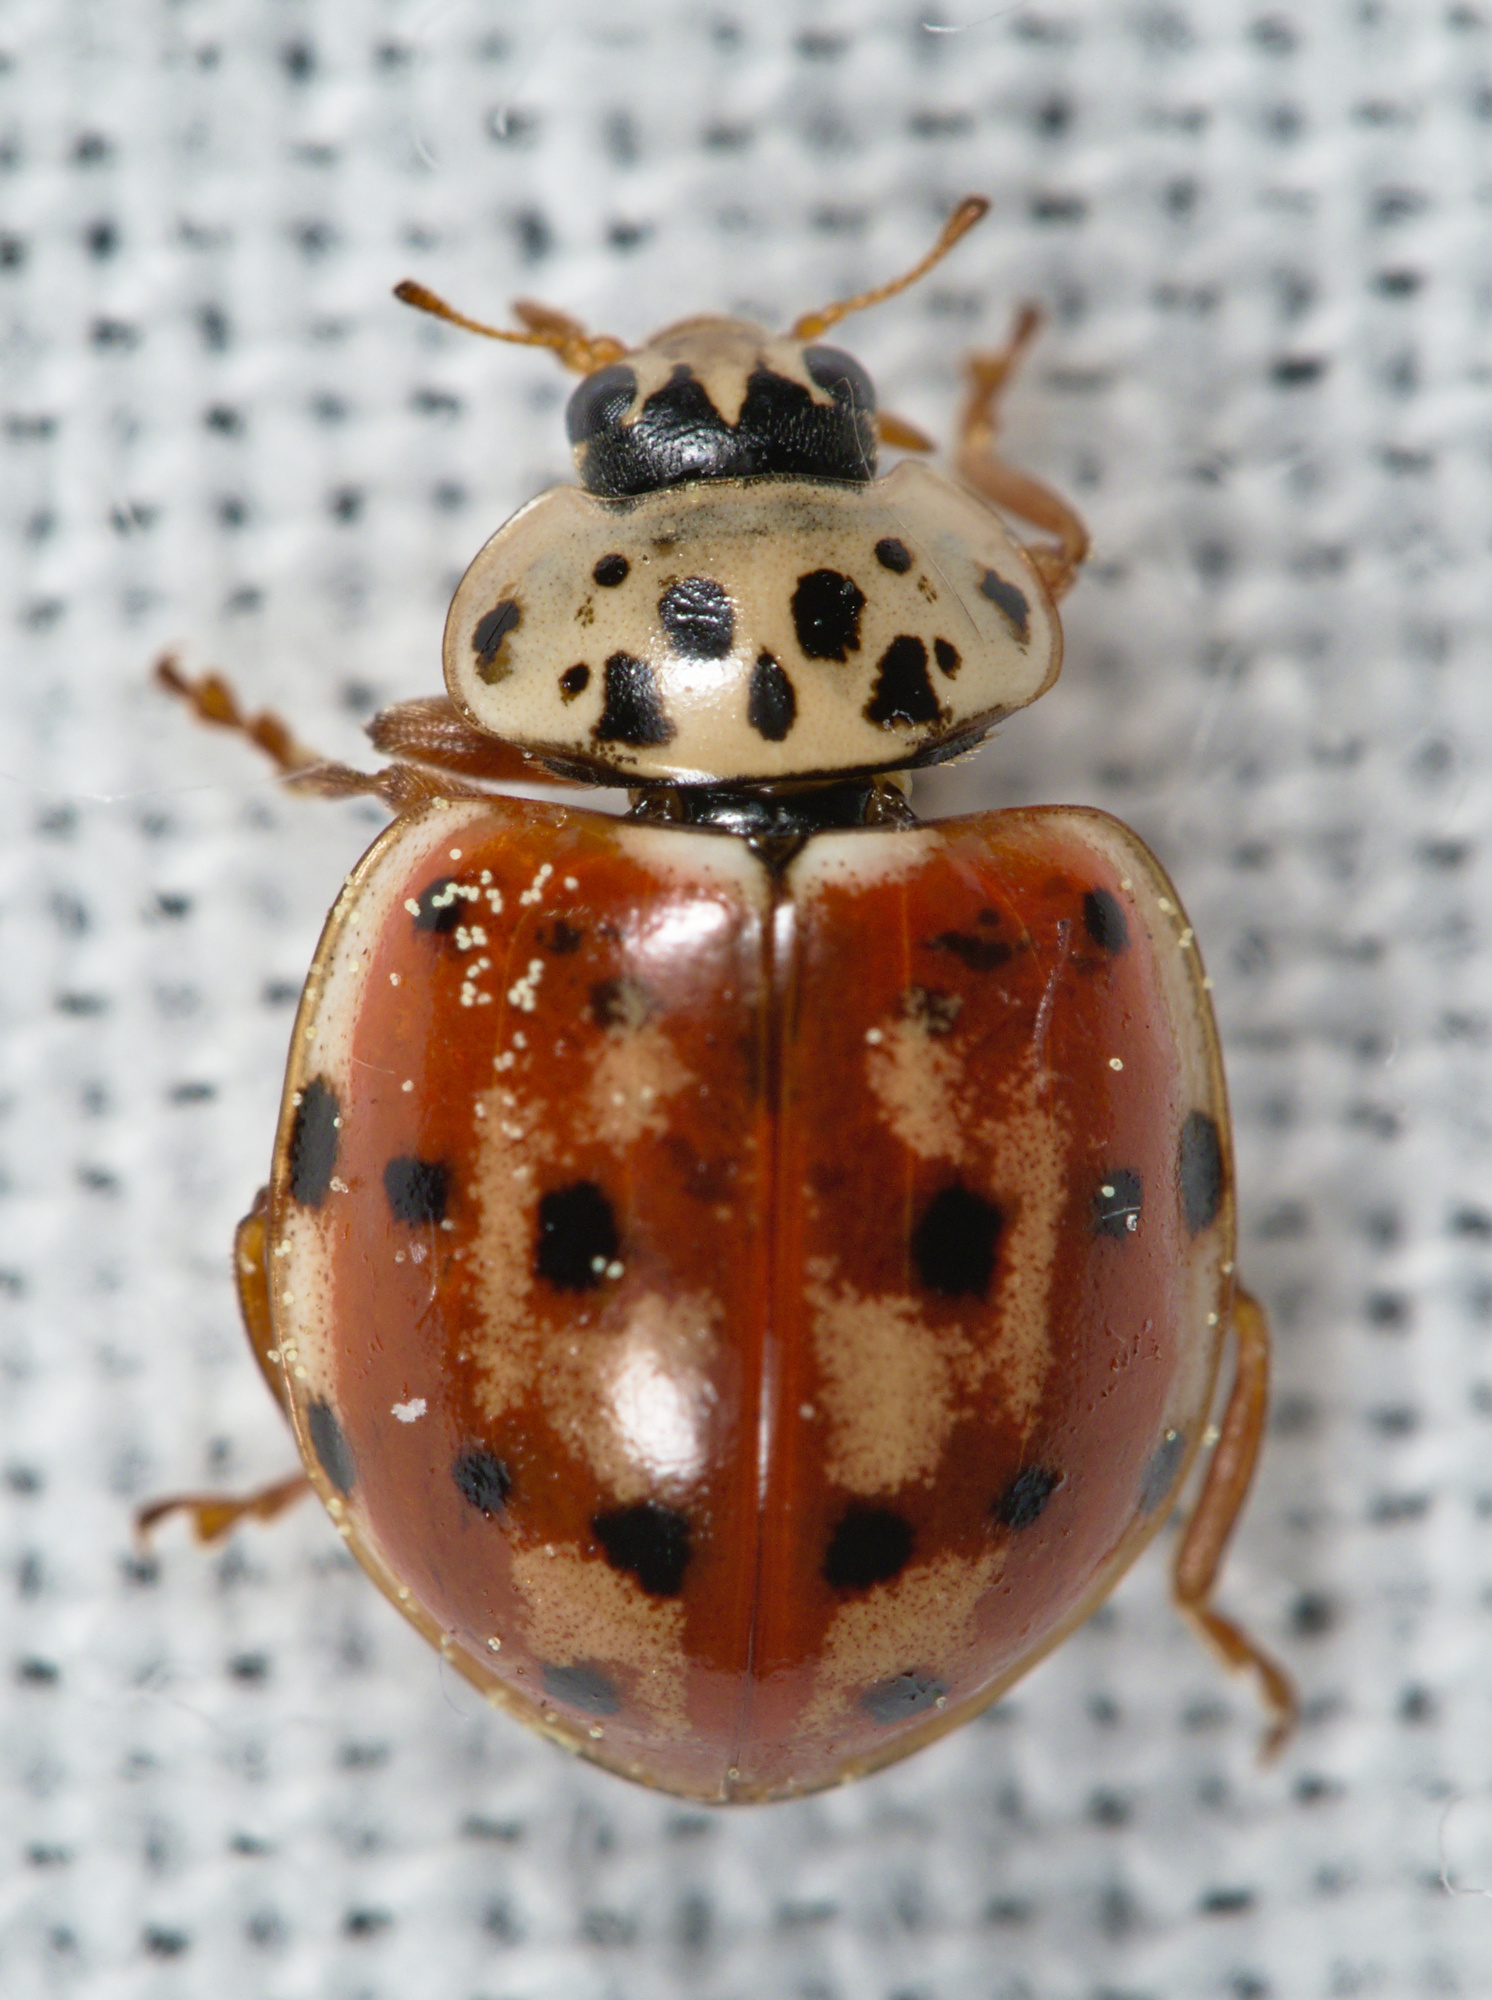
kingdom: Animalia
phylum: Arthropoda
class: Insecta
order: Coleoptera
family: Coccinellidae
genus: Harmonia
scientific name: Harmonia quadripunctata
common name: Cream-streaked ladybird
